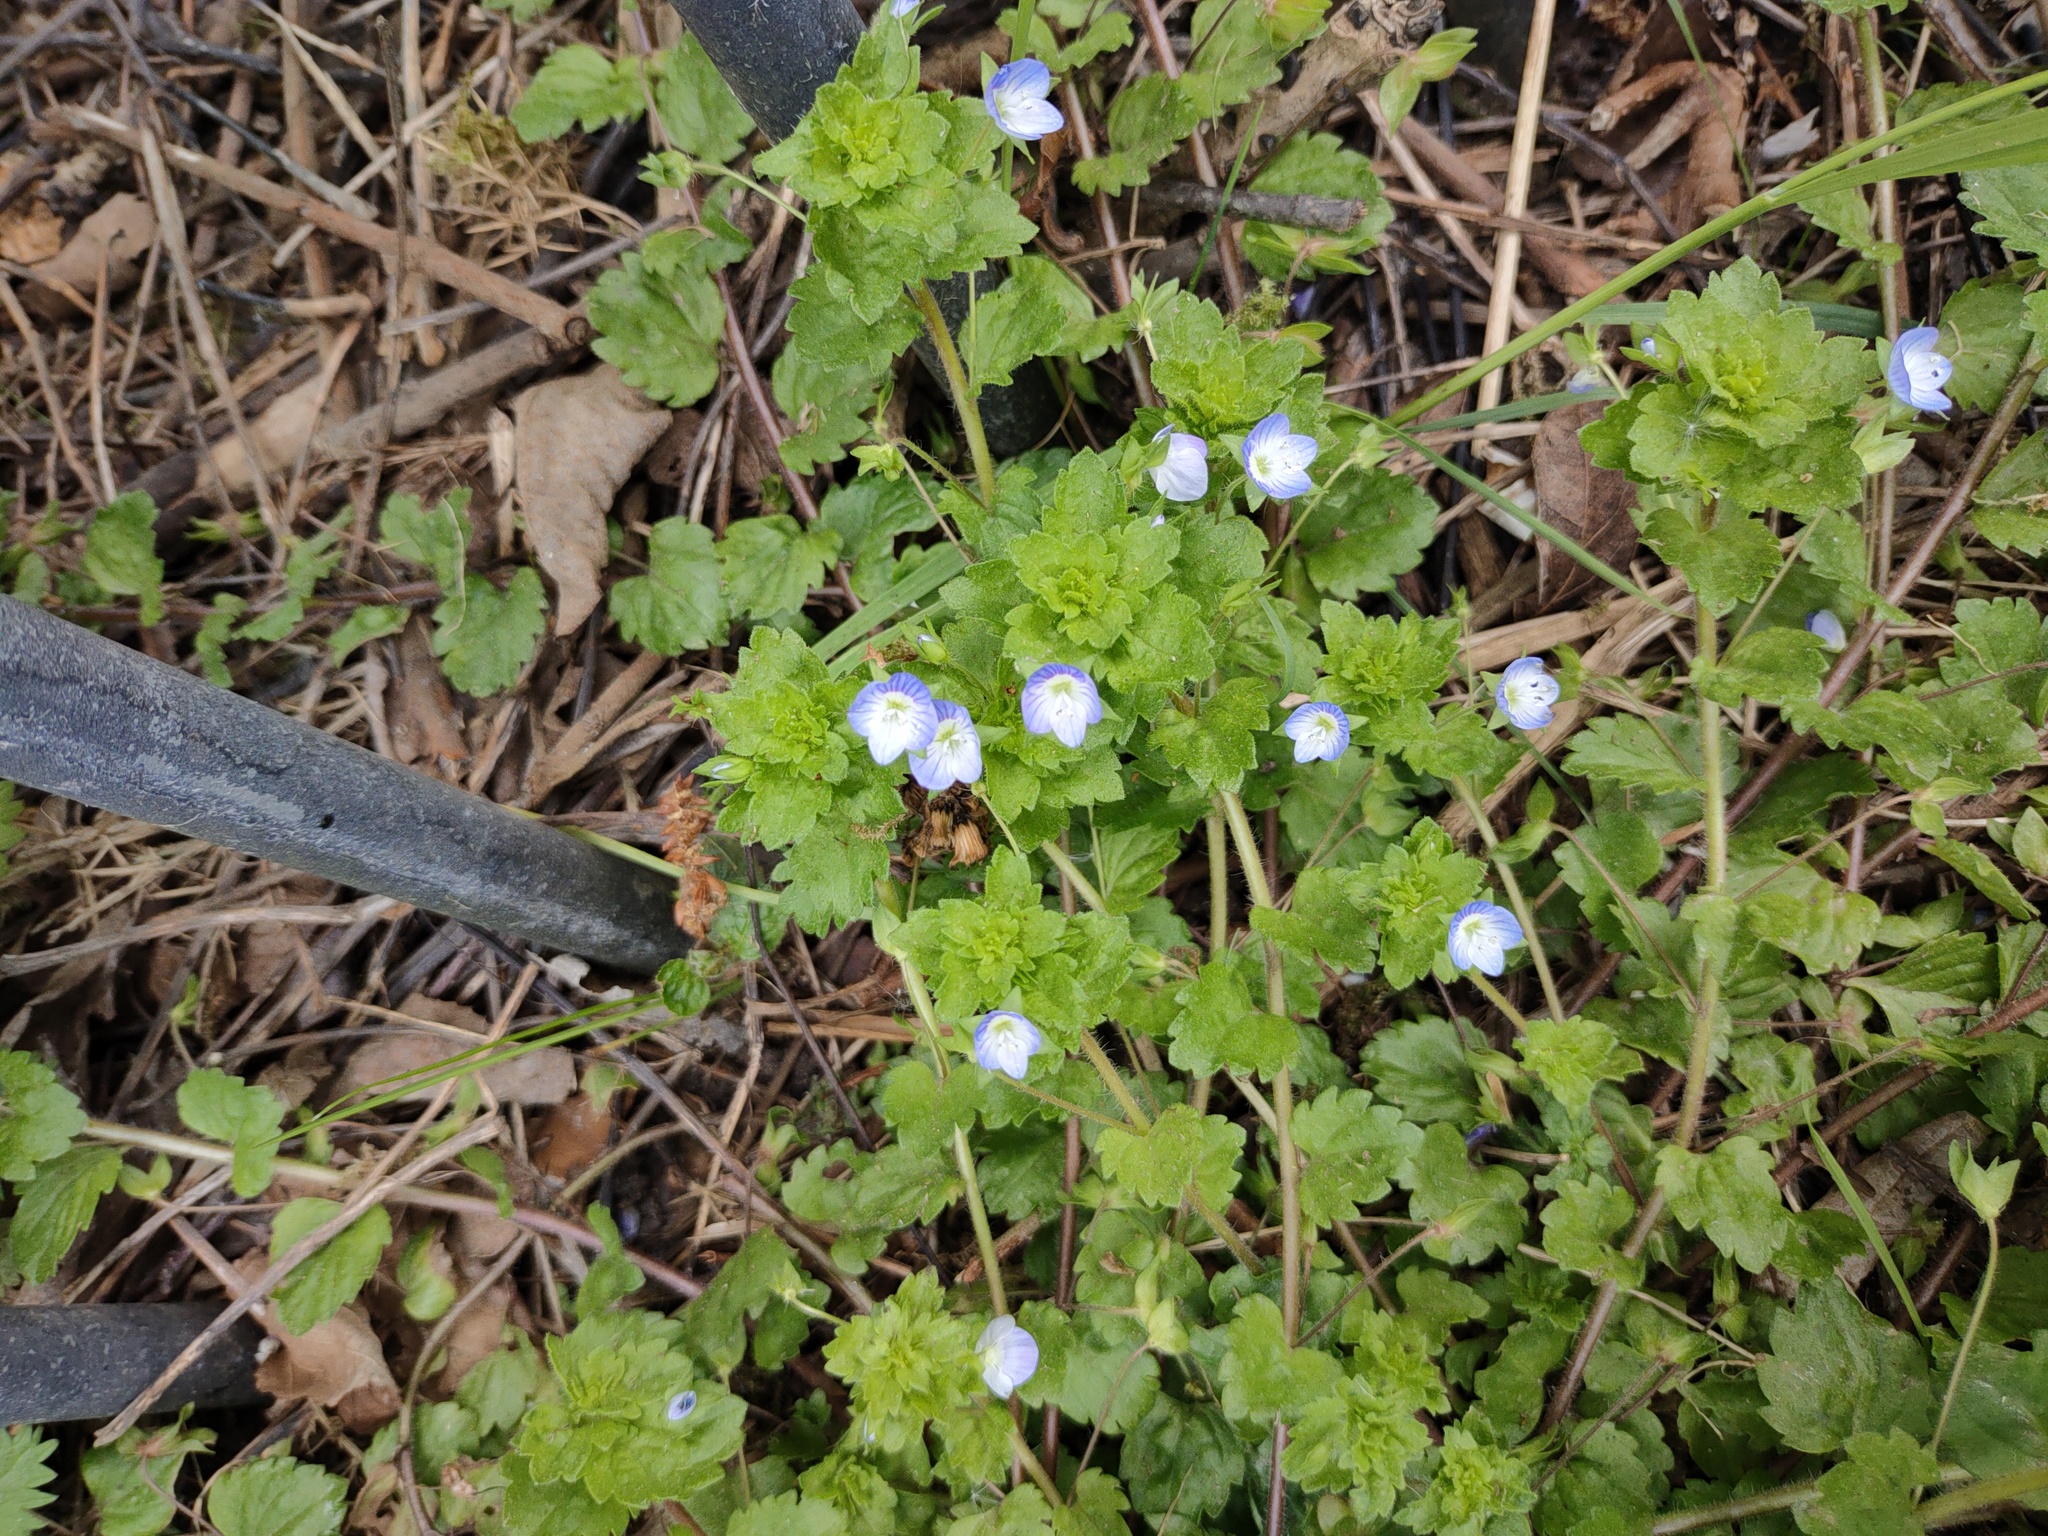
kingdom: Plantae
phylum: Tracheophyta
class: Magnoliopsida
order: Lamiales
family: Plantaginaceae
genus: Veronica
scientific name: Veronica persica
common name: Common field-speedwell
